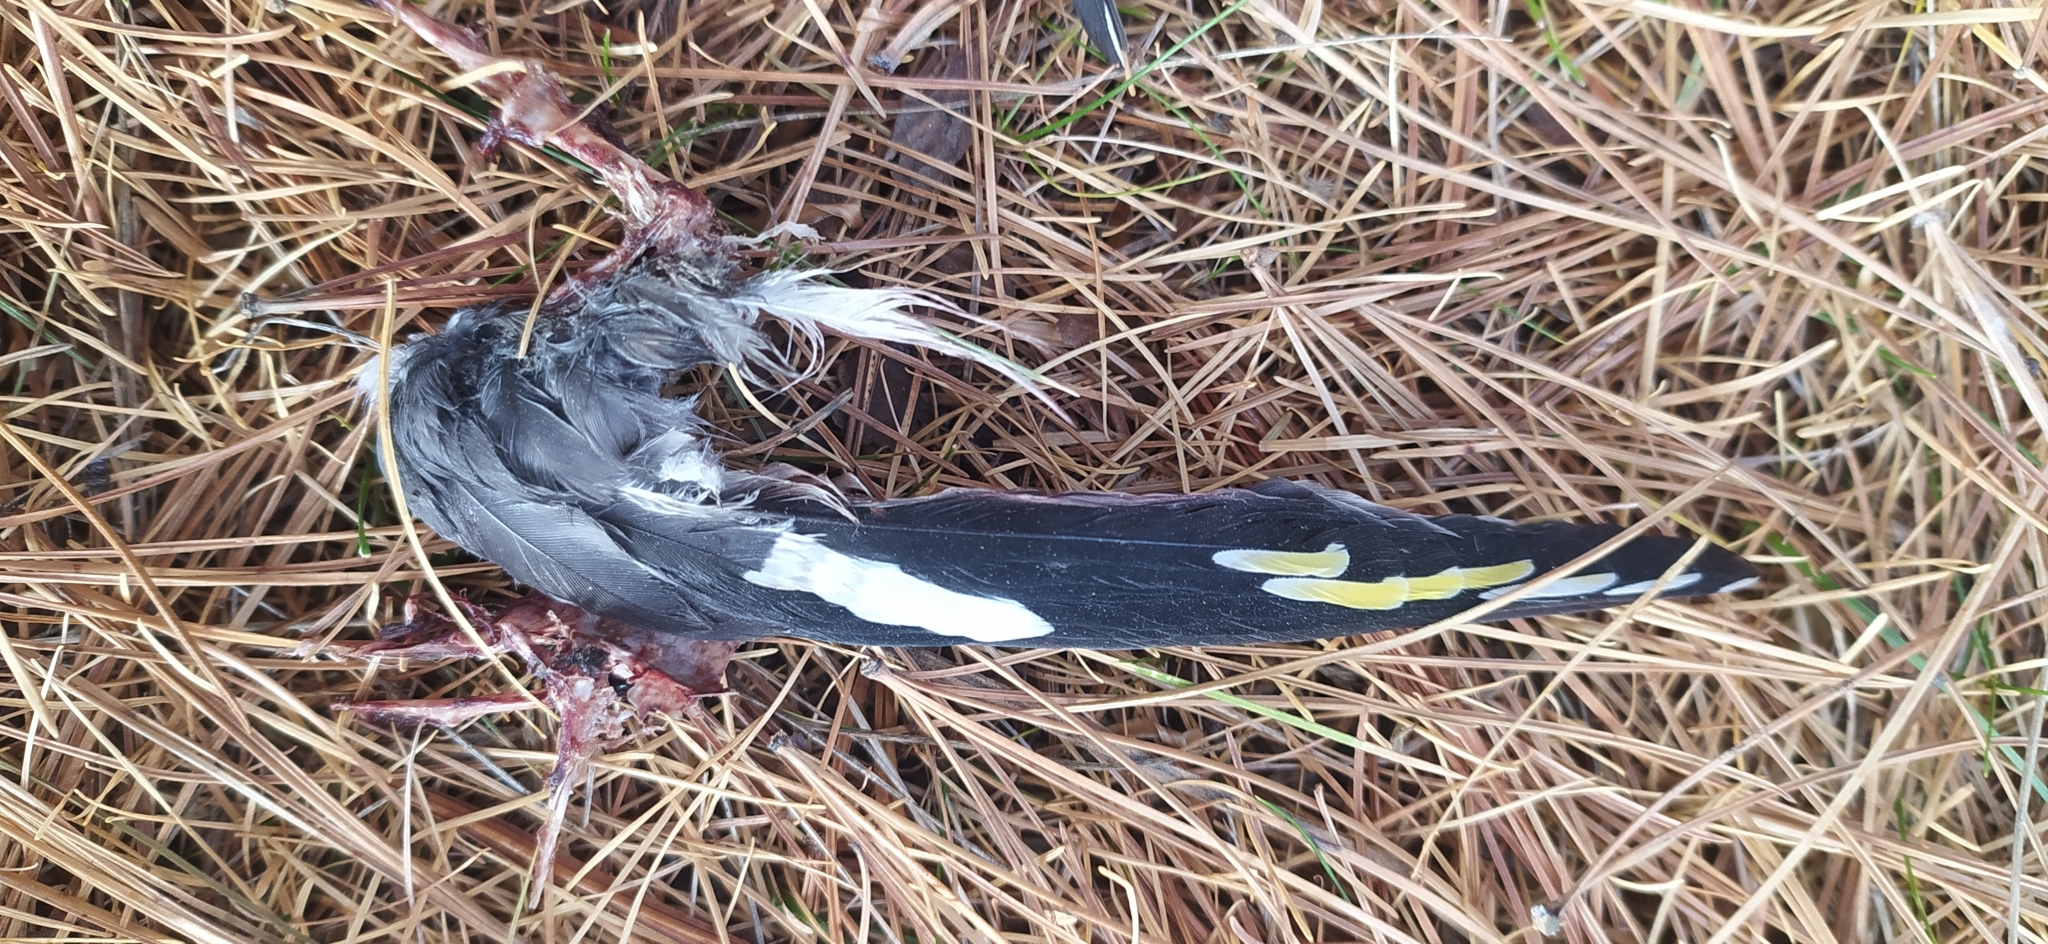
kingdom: Animalia
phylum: Chordata
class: Aves
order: Passeriformes
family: Bombycillidae
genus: Bombycilla
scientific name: Bombycilla garrulus
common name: Bohemian waxwing
